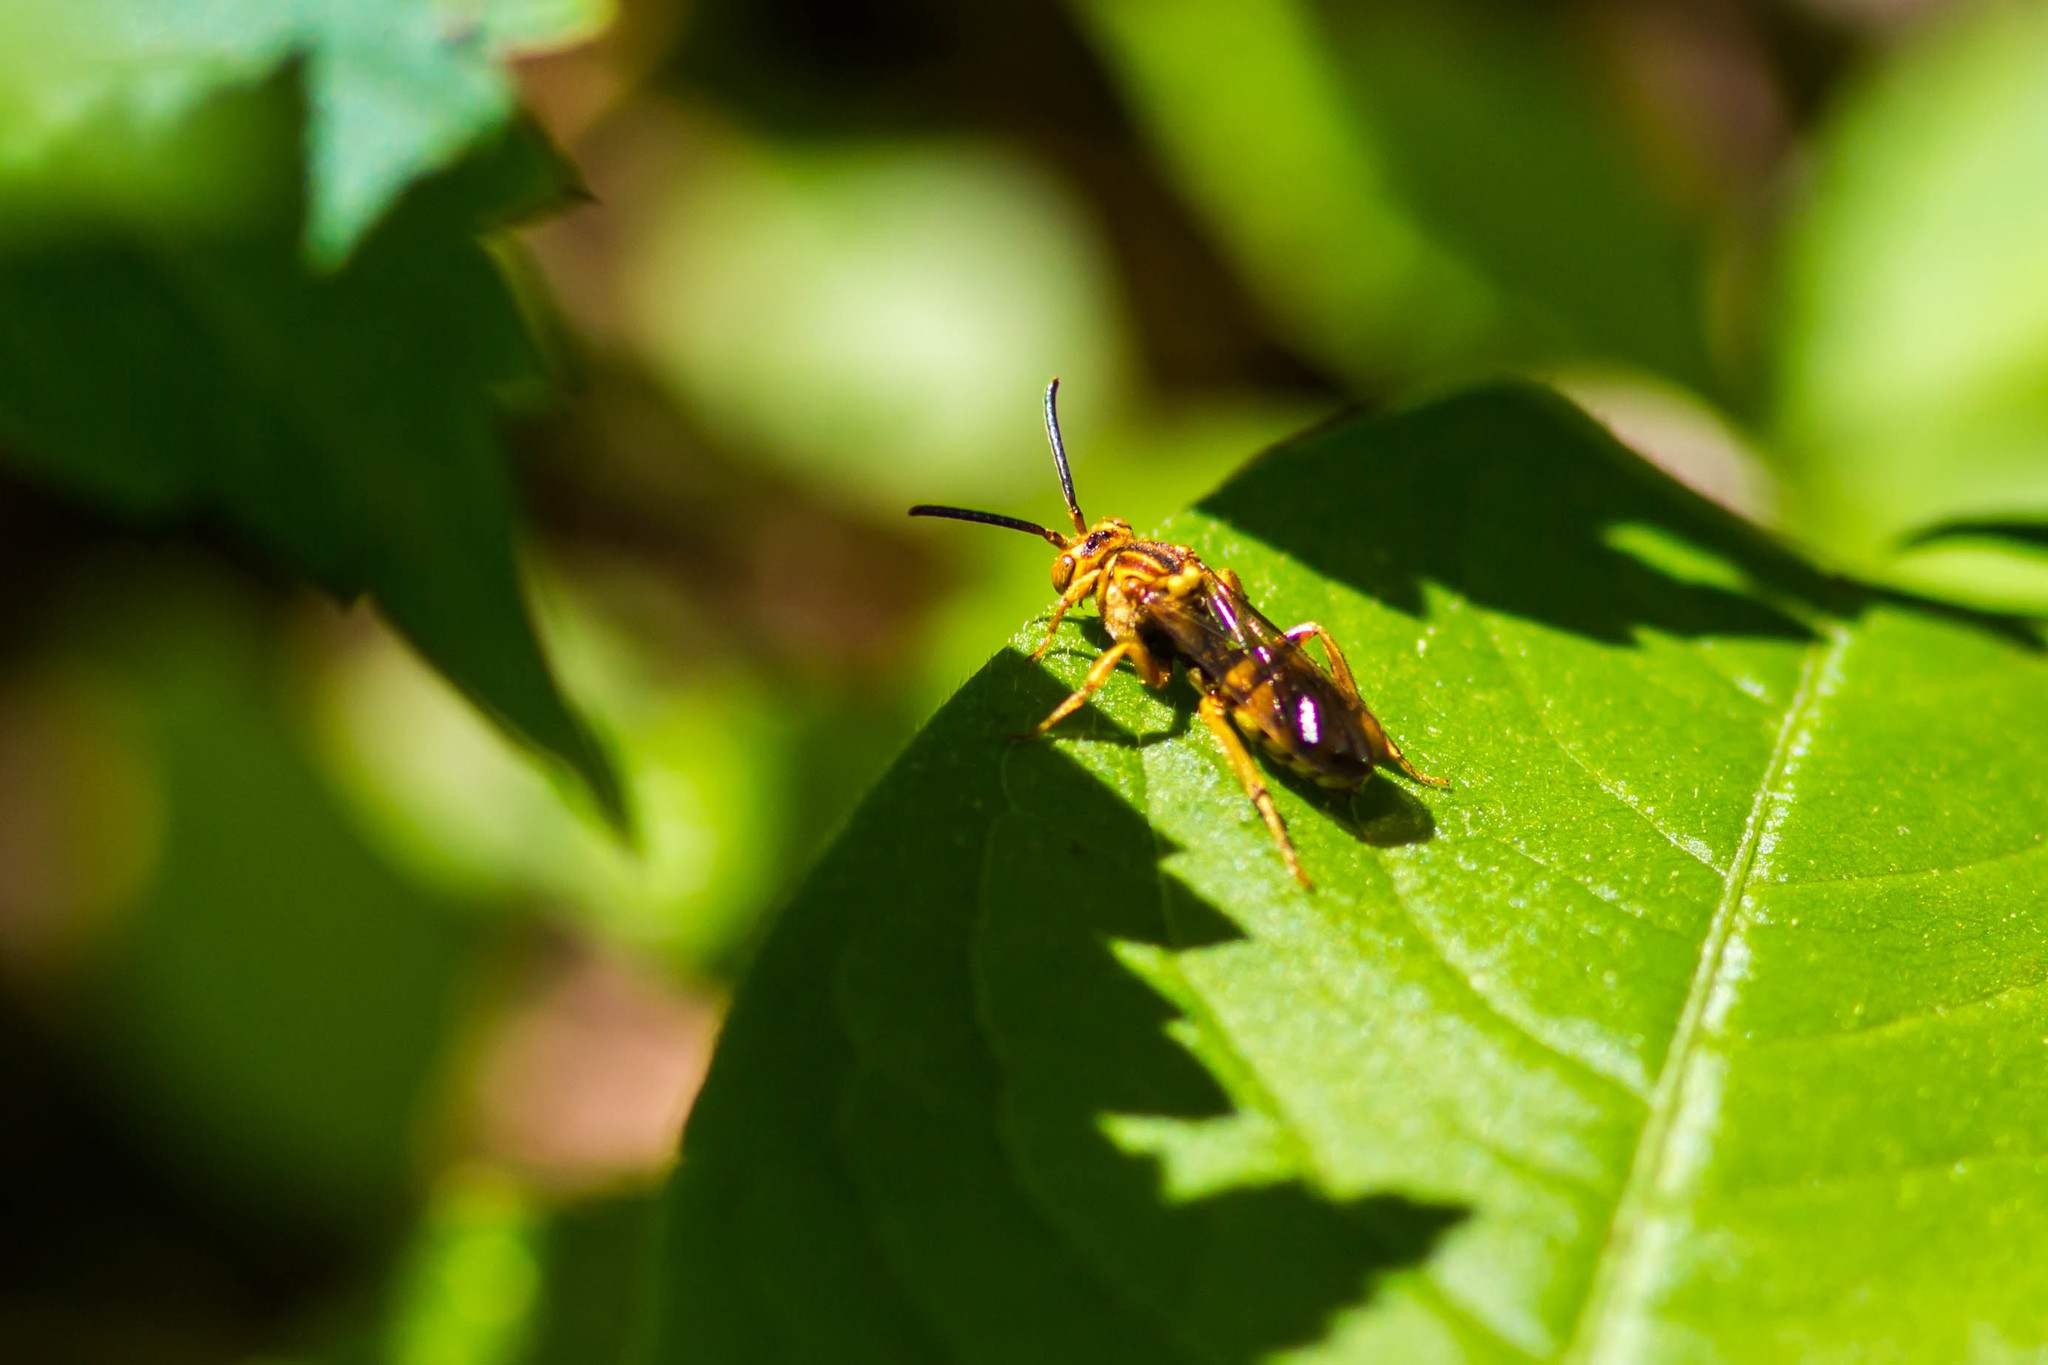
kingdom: Animalia
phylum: Arthropoda
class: Insecta
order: Hymenoptera
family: Apidae
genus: Nomada
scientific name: Nomada imbricata
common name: Imbricate cuckoo nomad bee
